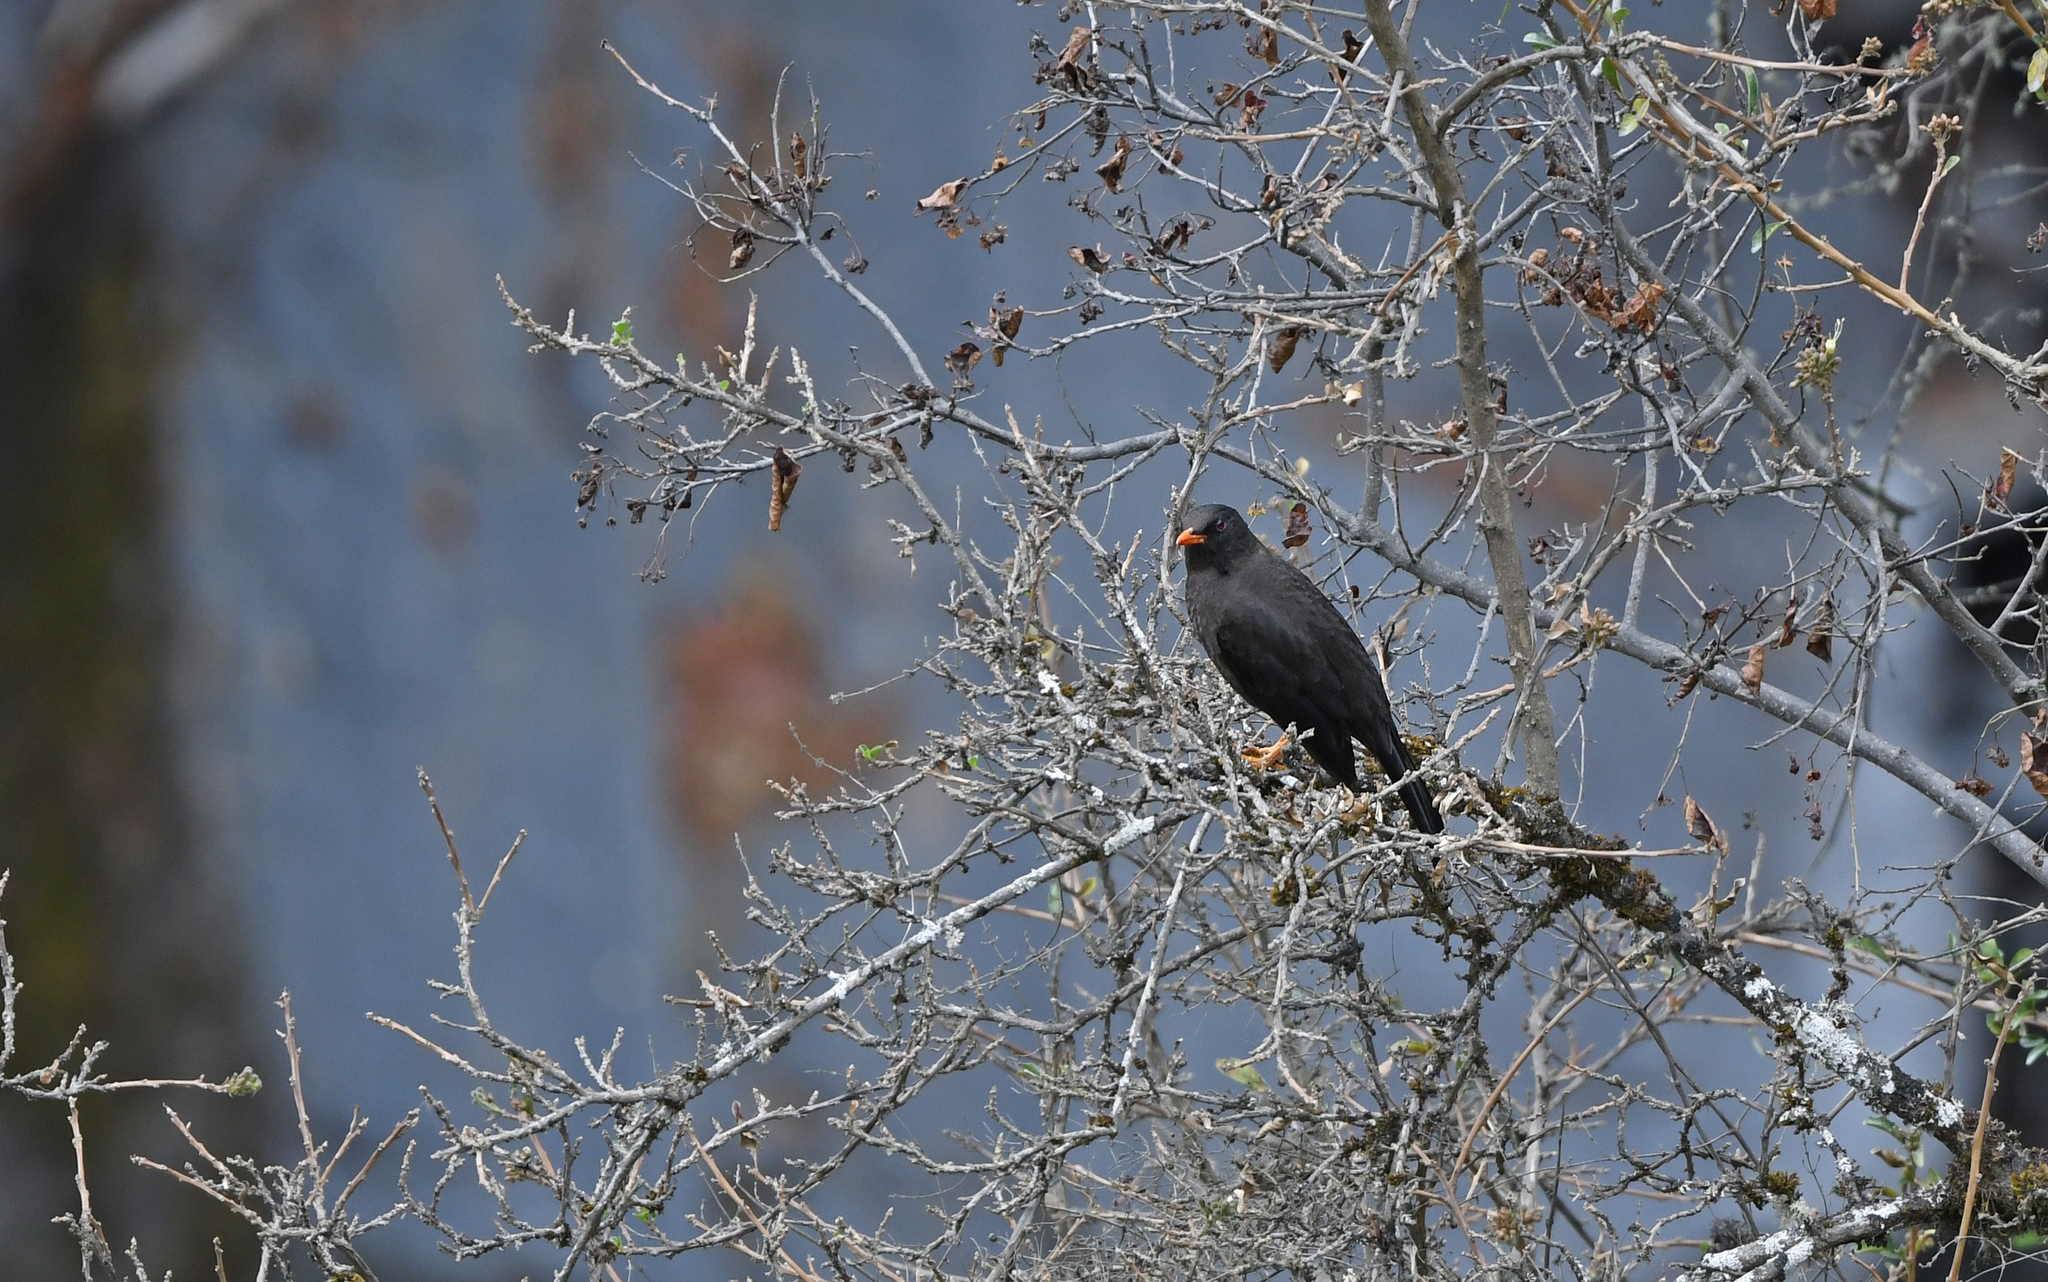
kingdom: Animalia
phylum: Chordata
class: Aves
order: Passeriformes
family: Turdidae
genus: Turdus
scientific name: Turdus fuscater
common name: Great thrush
